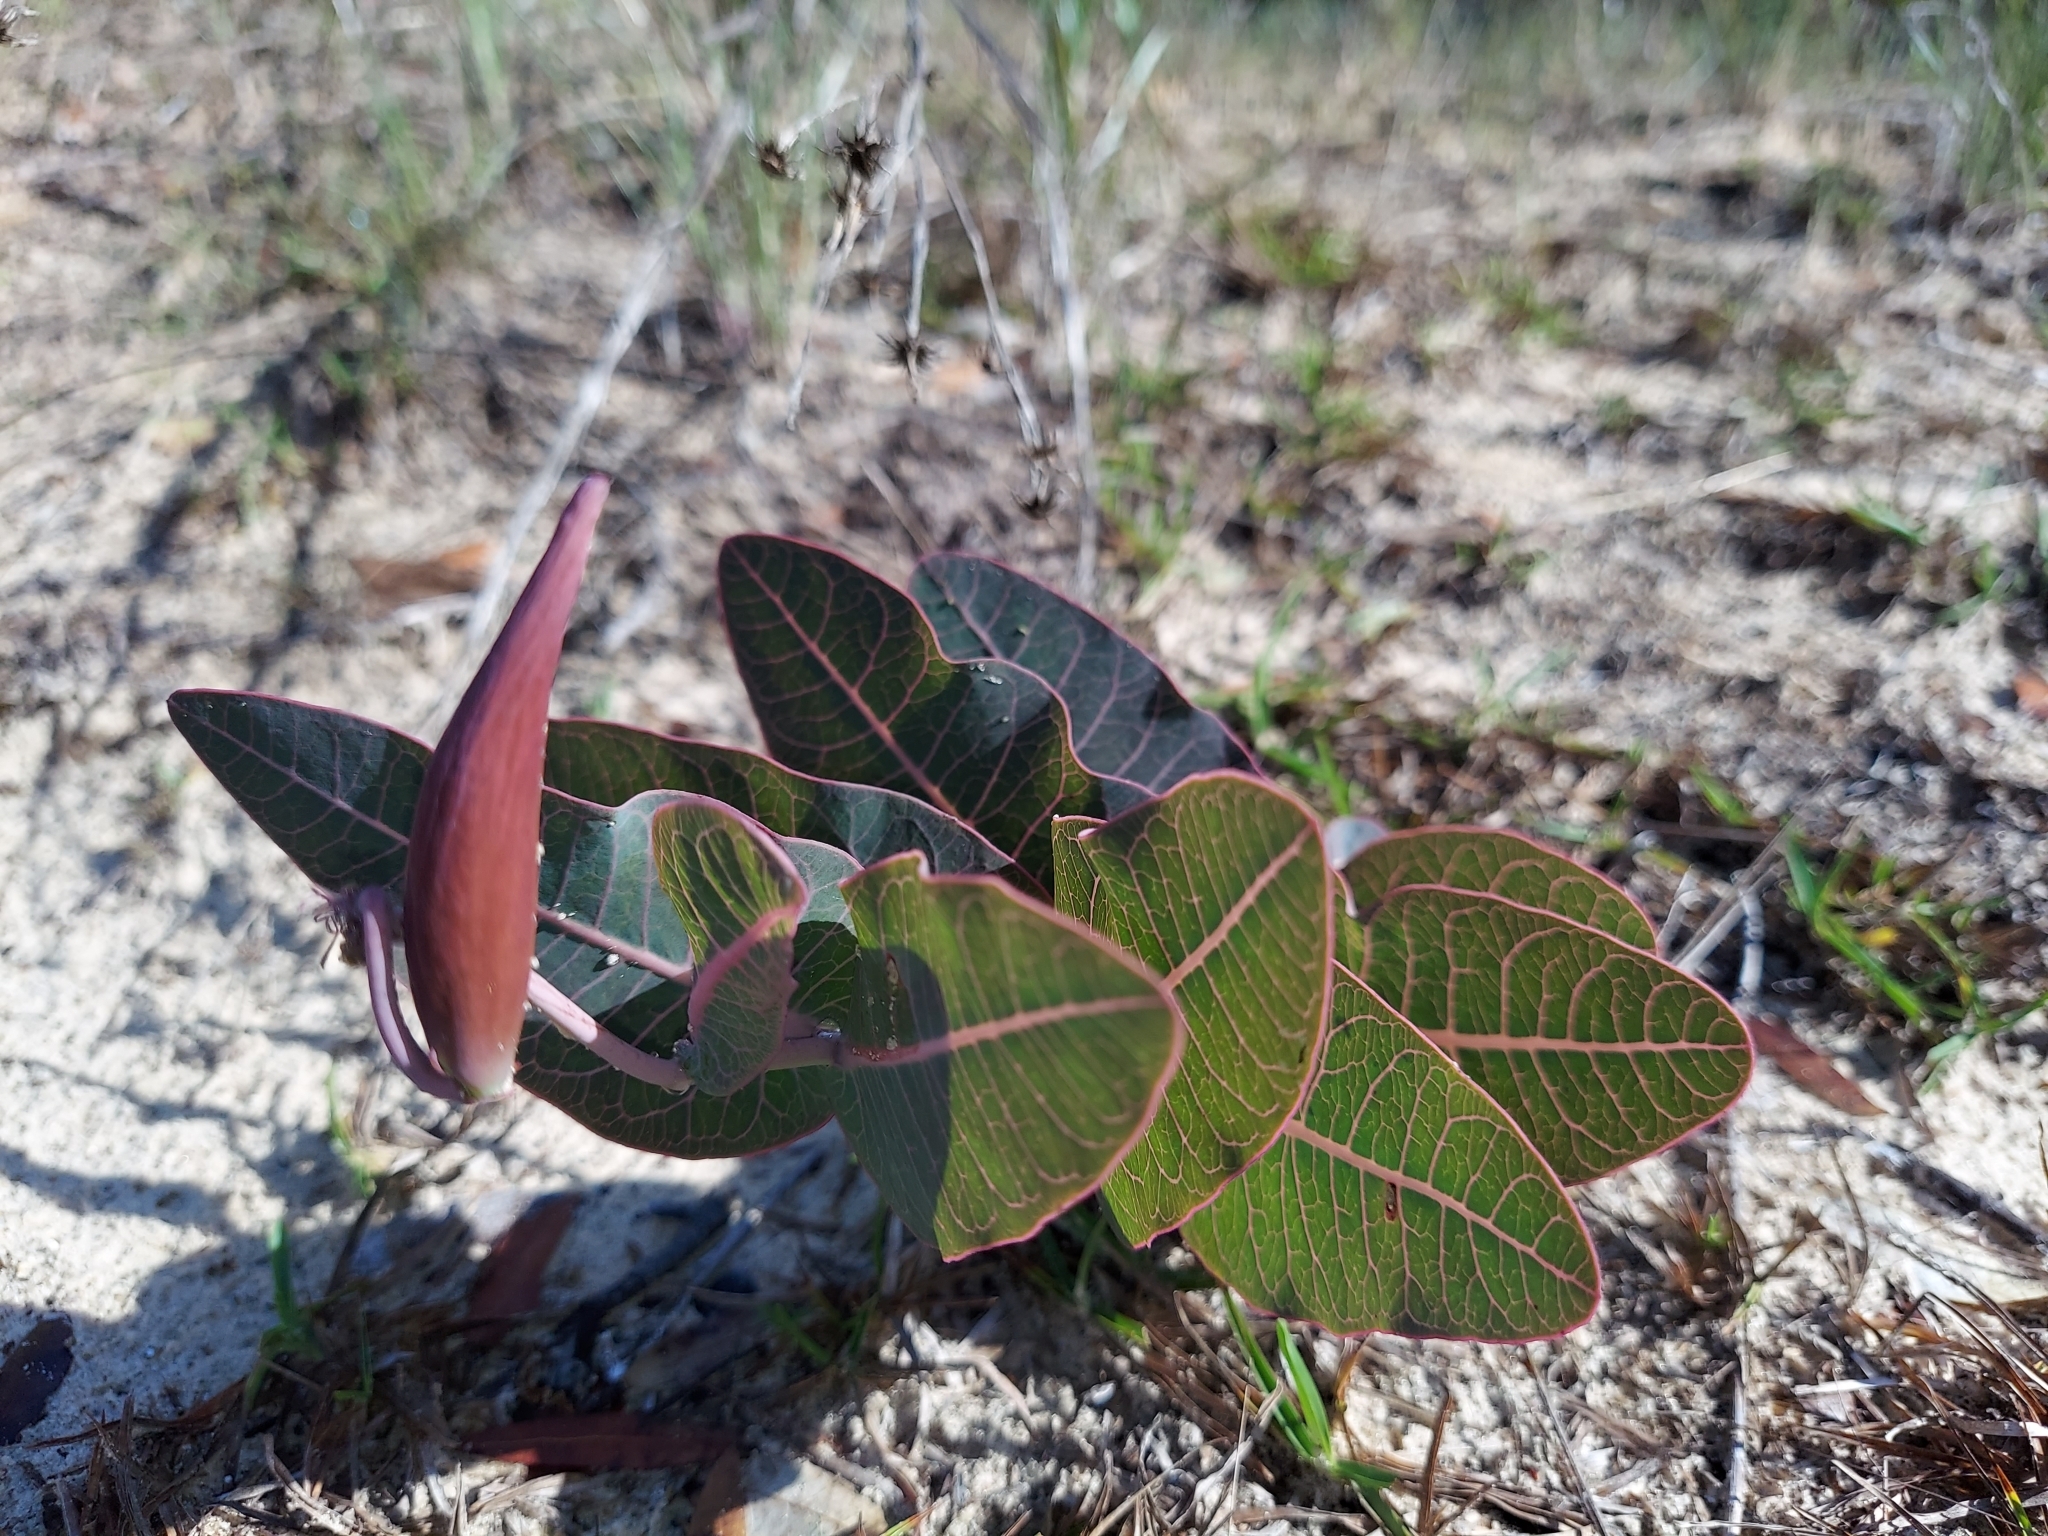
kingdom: Plantae
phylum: Tracheophyta
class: Magnoliopsida
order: Gentianales
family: Apocynaceae
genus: Asclepias
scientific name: Asclepias humistrata
